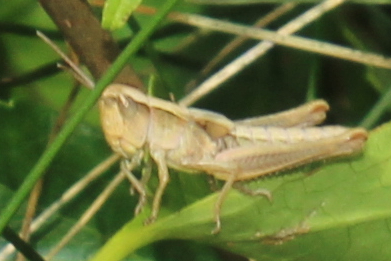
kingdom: Animalia
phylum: Arthropoda
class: Insecta
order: Orthoptera
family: Acrididae
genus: Pseudochorthippus
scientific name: Pseudochorthippus curtipennis
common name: Marsh meadow grasshopper
